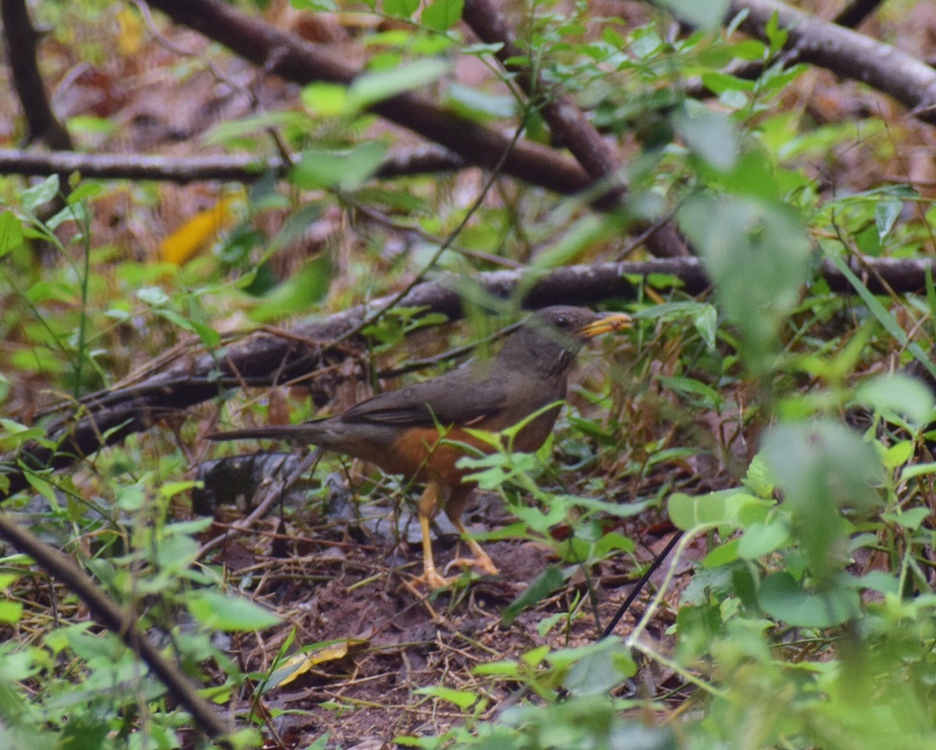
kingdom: Animalia
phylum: Chordata
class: Aves
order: Passeriformes
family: Turdidae
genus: Turdus
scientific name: Turdus olivaceus
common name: Olive thrush
